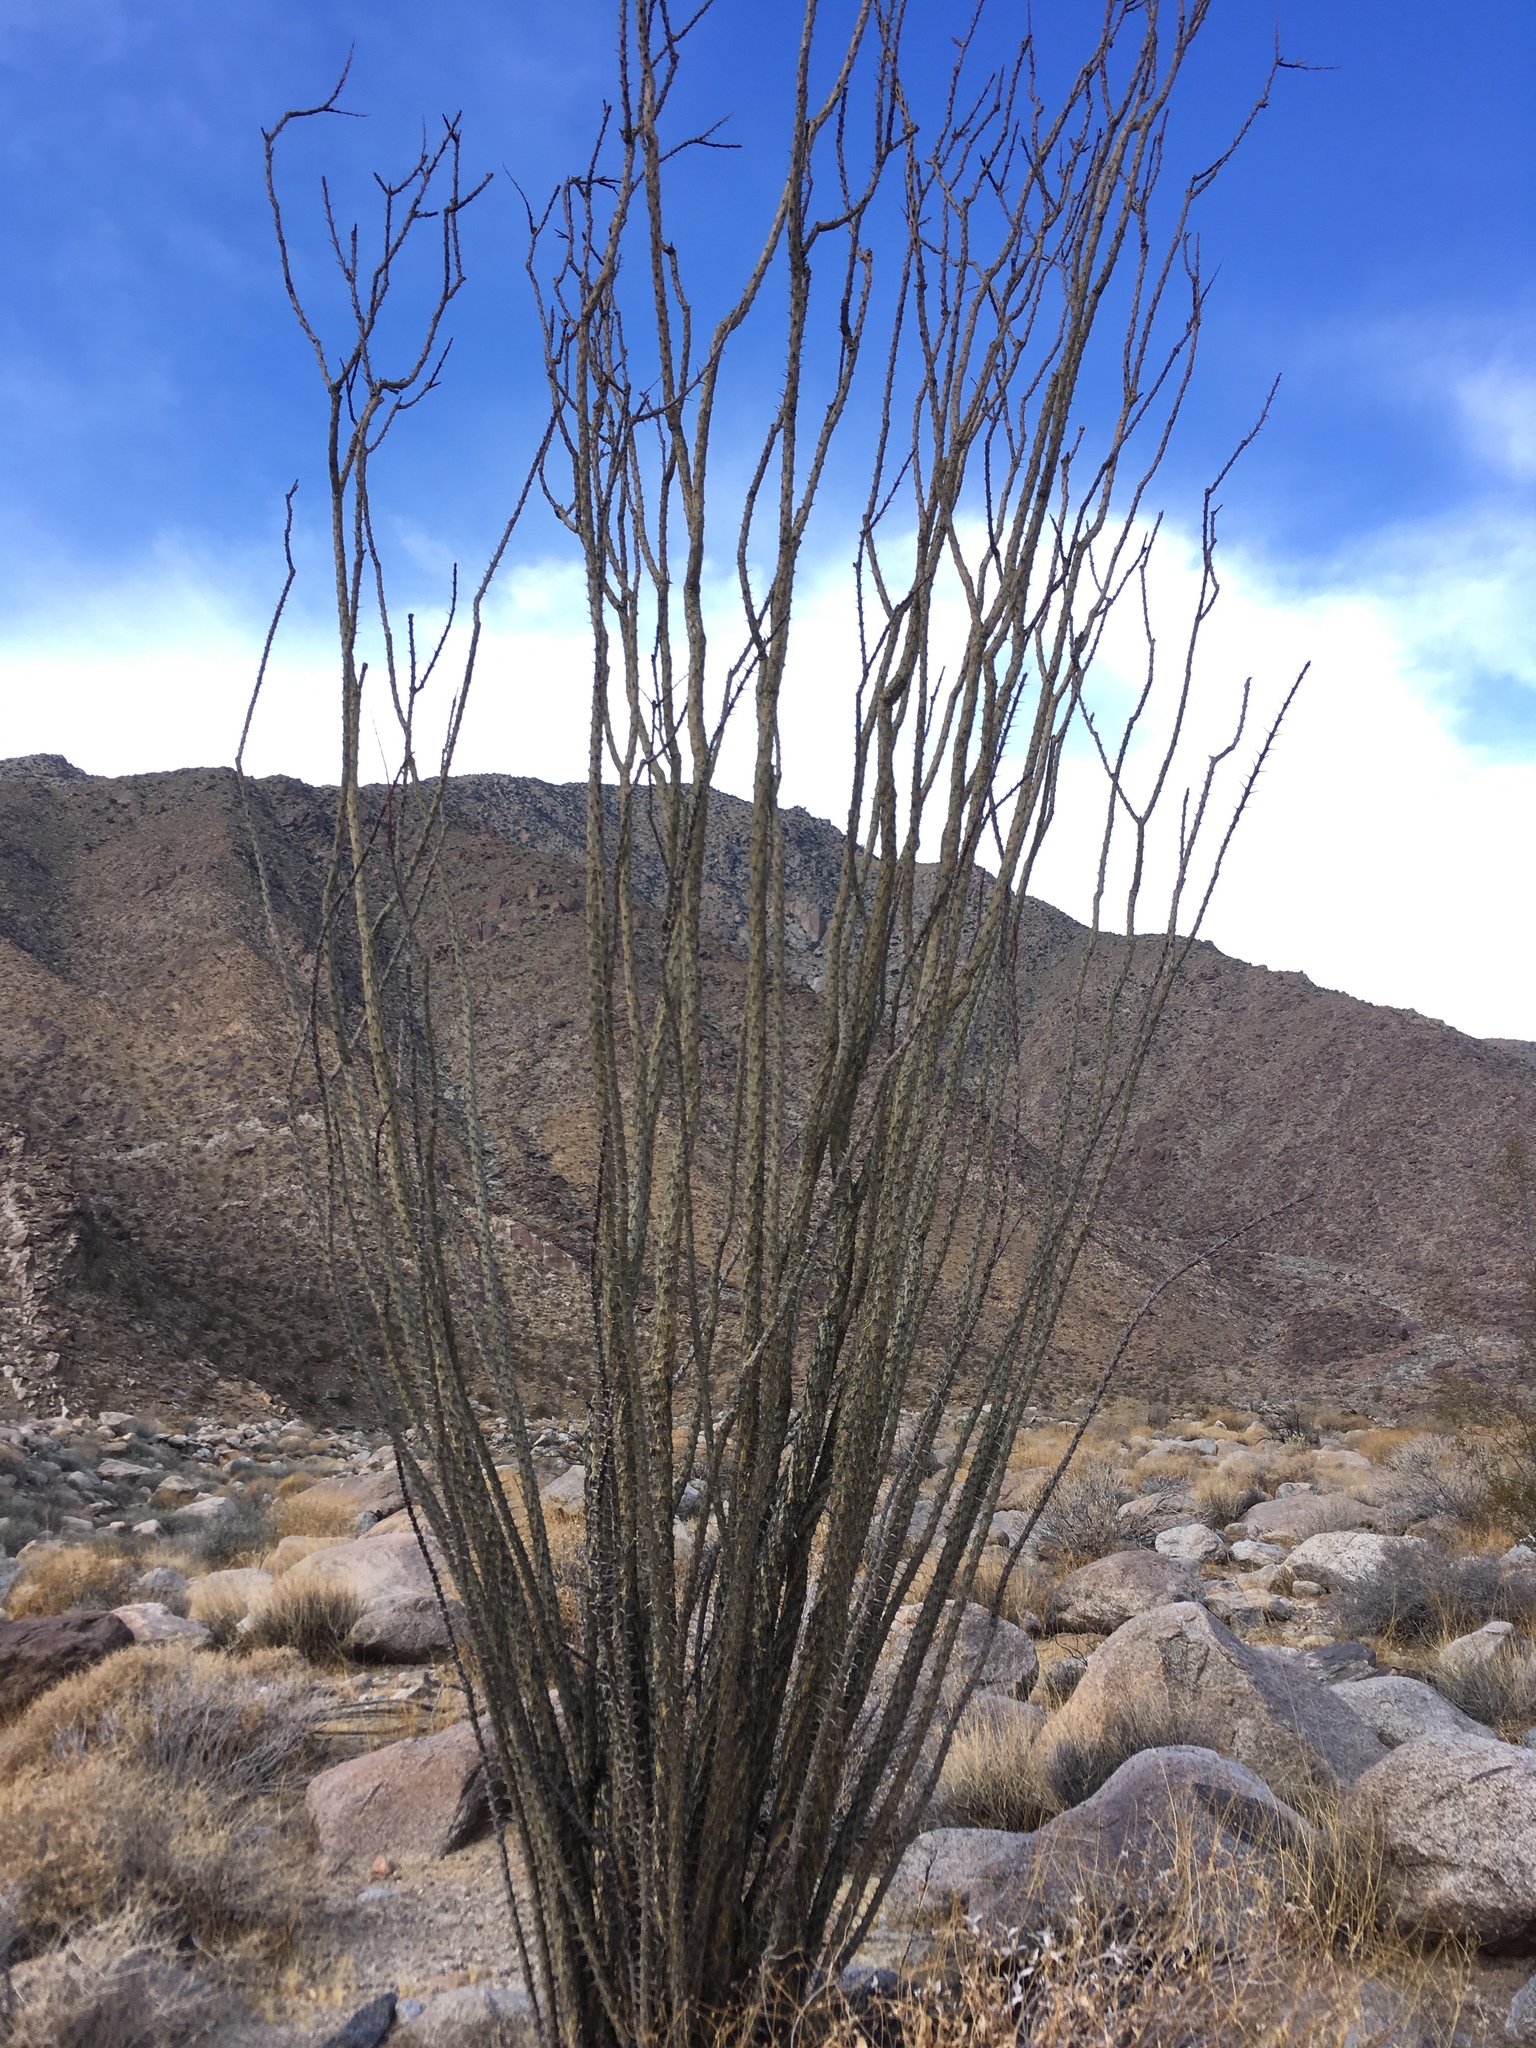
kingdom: Plantae
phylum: Tracheophyta
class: Magnoliopsida
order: Ericales
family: Fouquieriaceae
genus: Fouquieria
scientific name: Fouquieria splendens
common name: Vine-cactus
